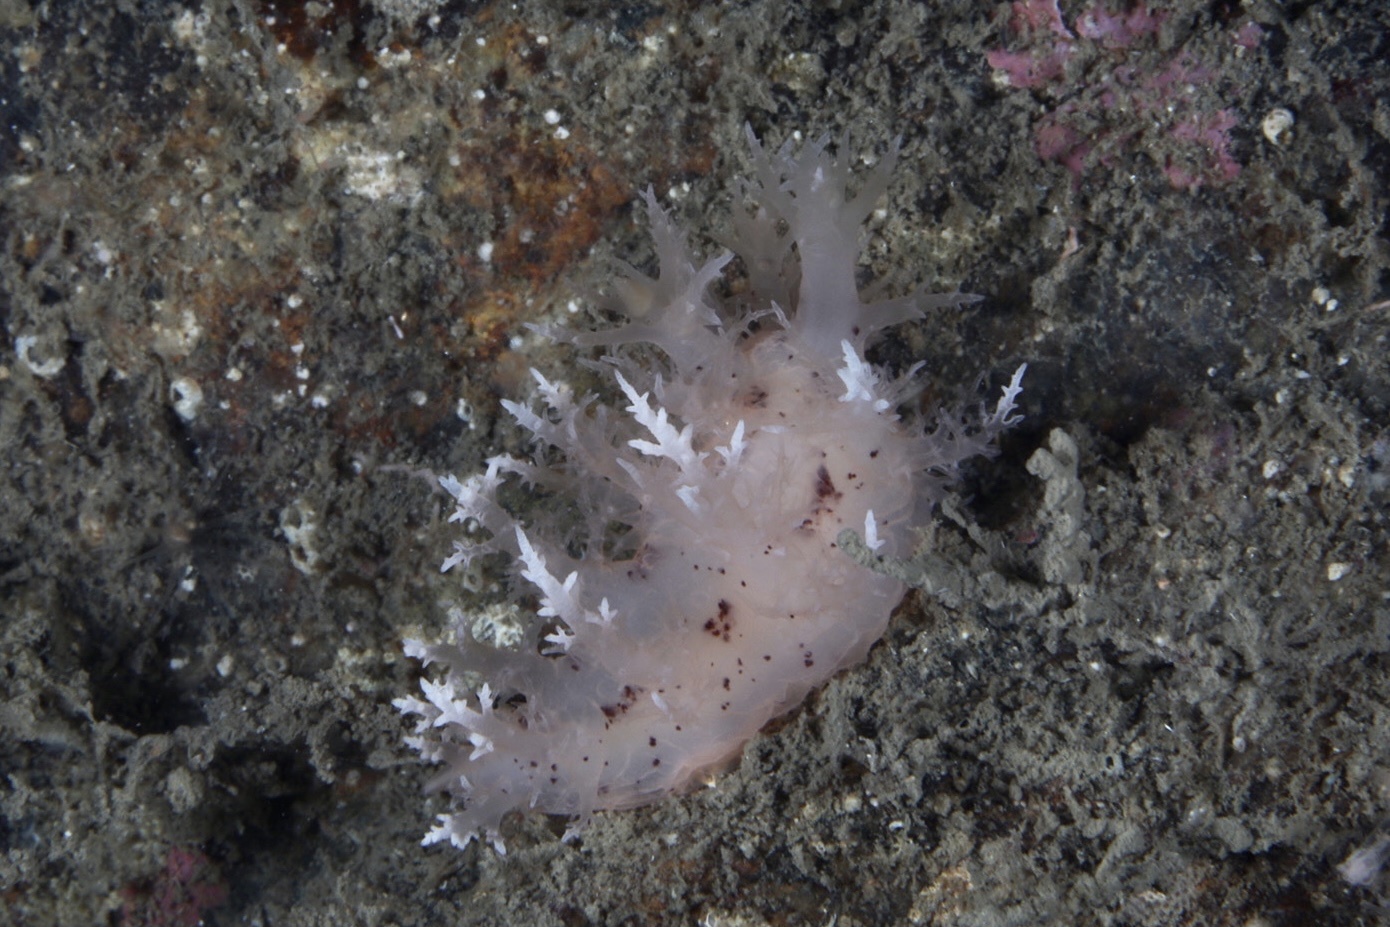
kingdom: Animalia
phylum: Mollusca
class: Gastropoda
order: Nudibranchia
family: Dendronotidae
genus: Dendronotus
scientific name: Dendronotus europaeus
